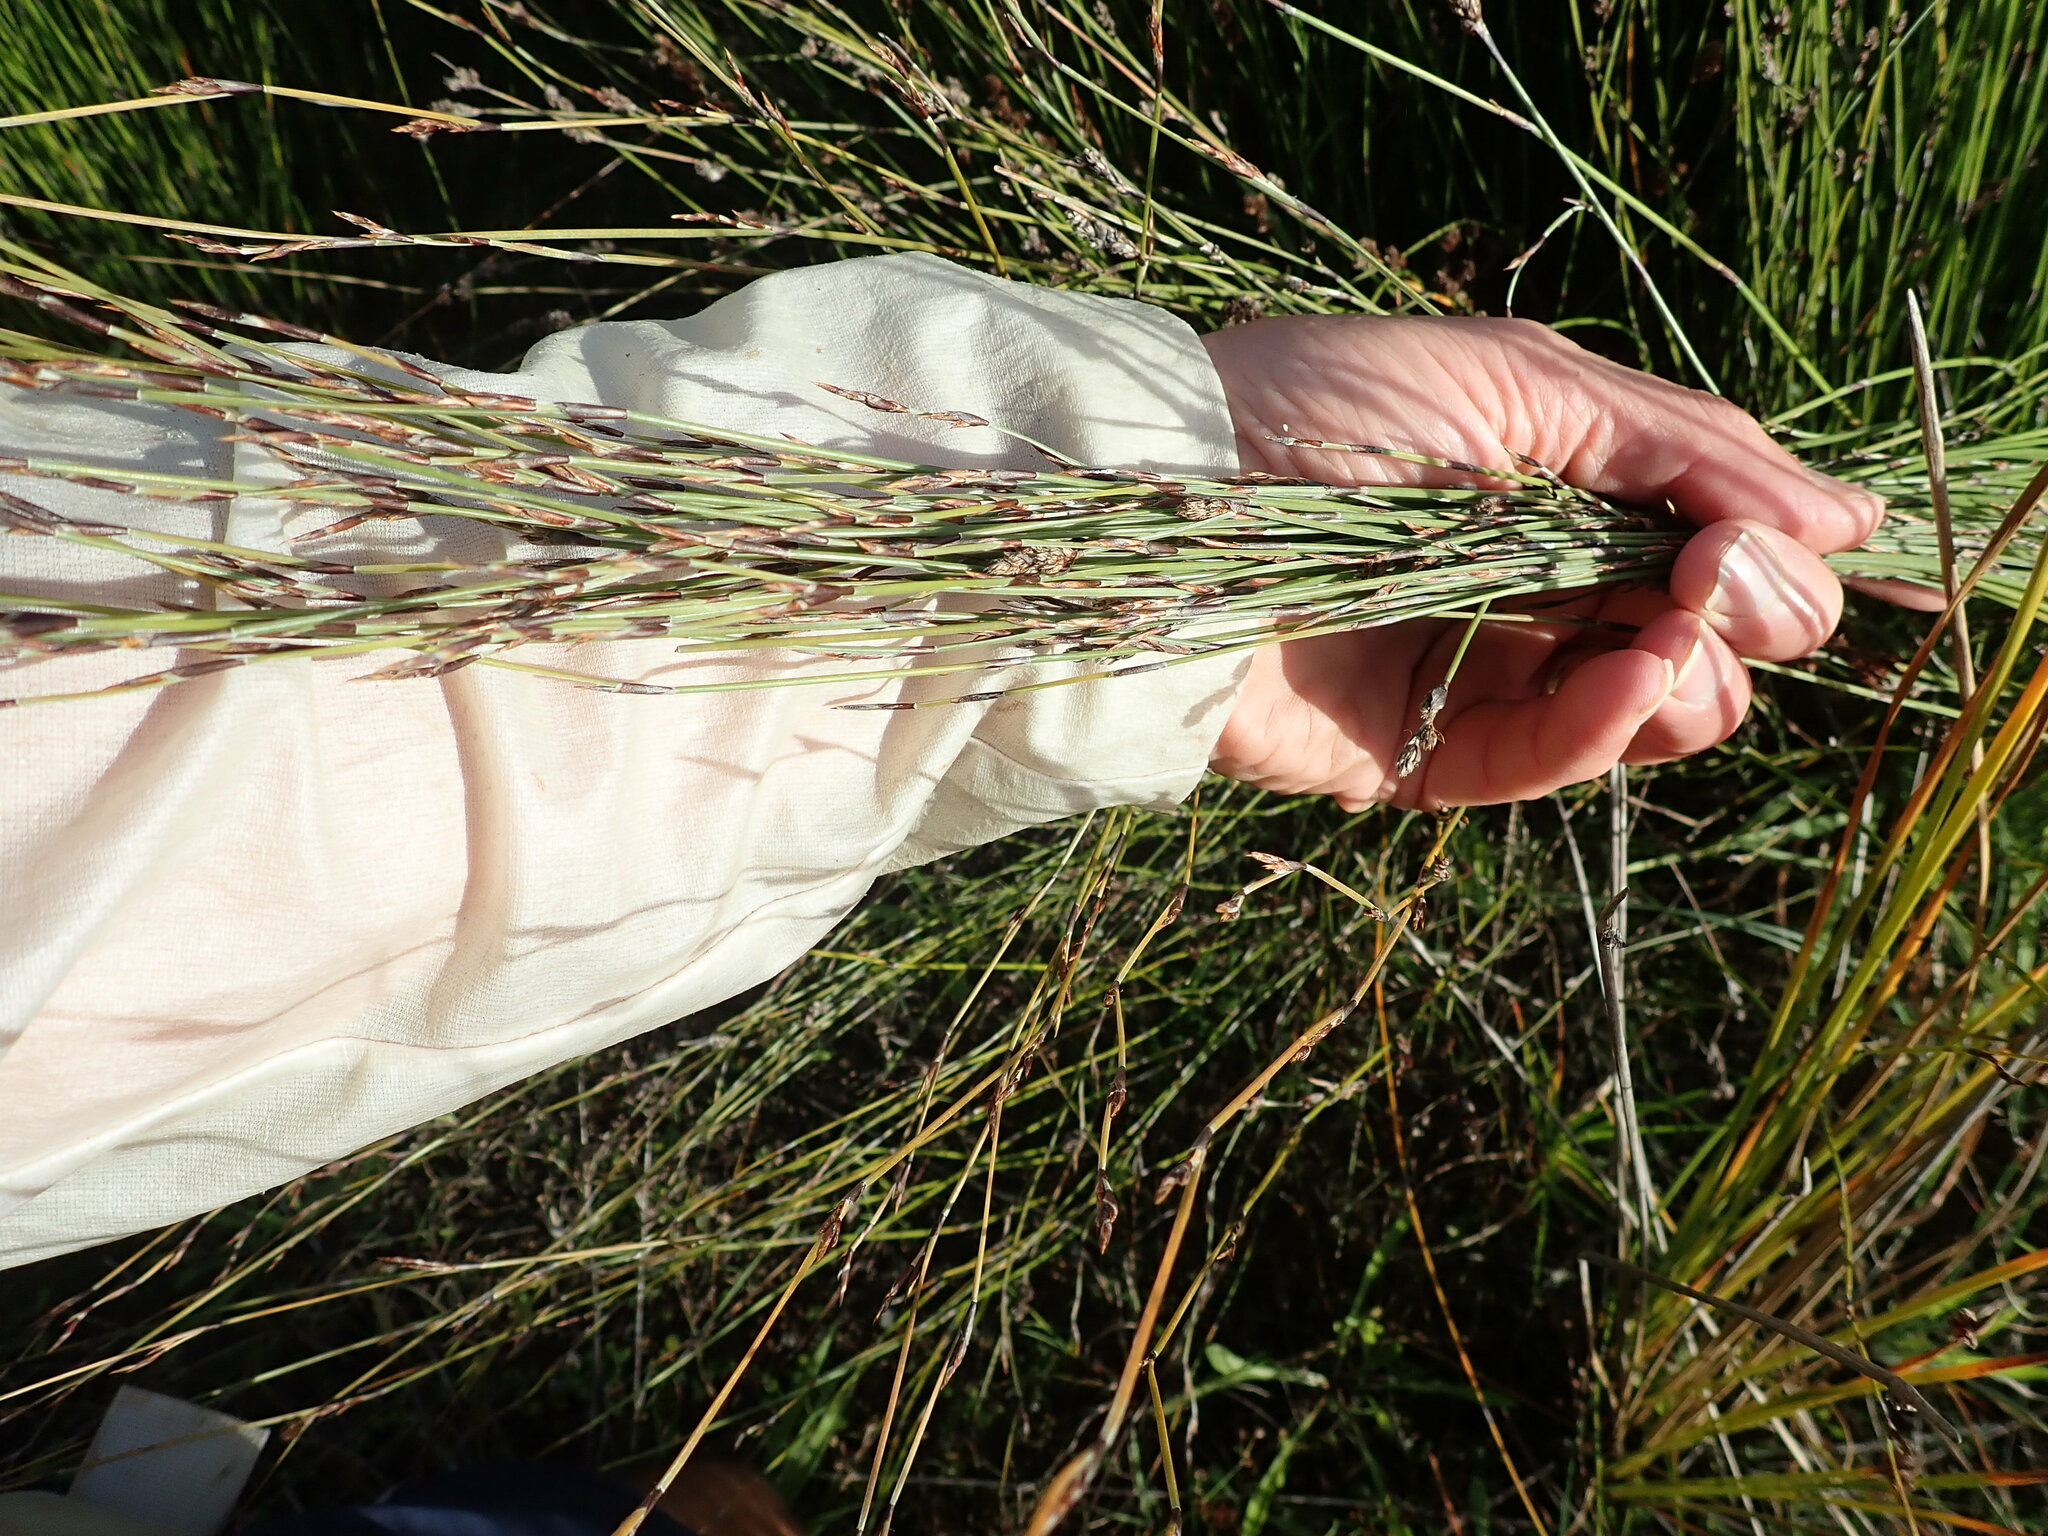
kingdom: Plantae
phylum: Tracheophyta
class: Liliopsida
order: Poales
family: Restionaceae
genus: Apodasmia
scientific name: Apodasmia similis
